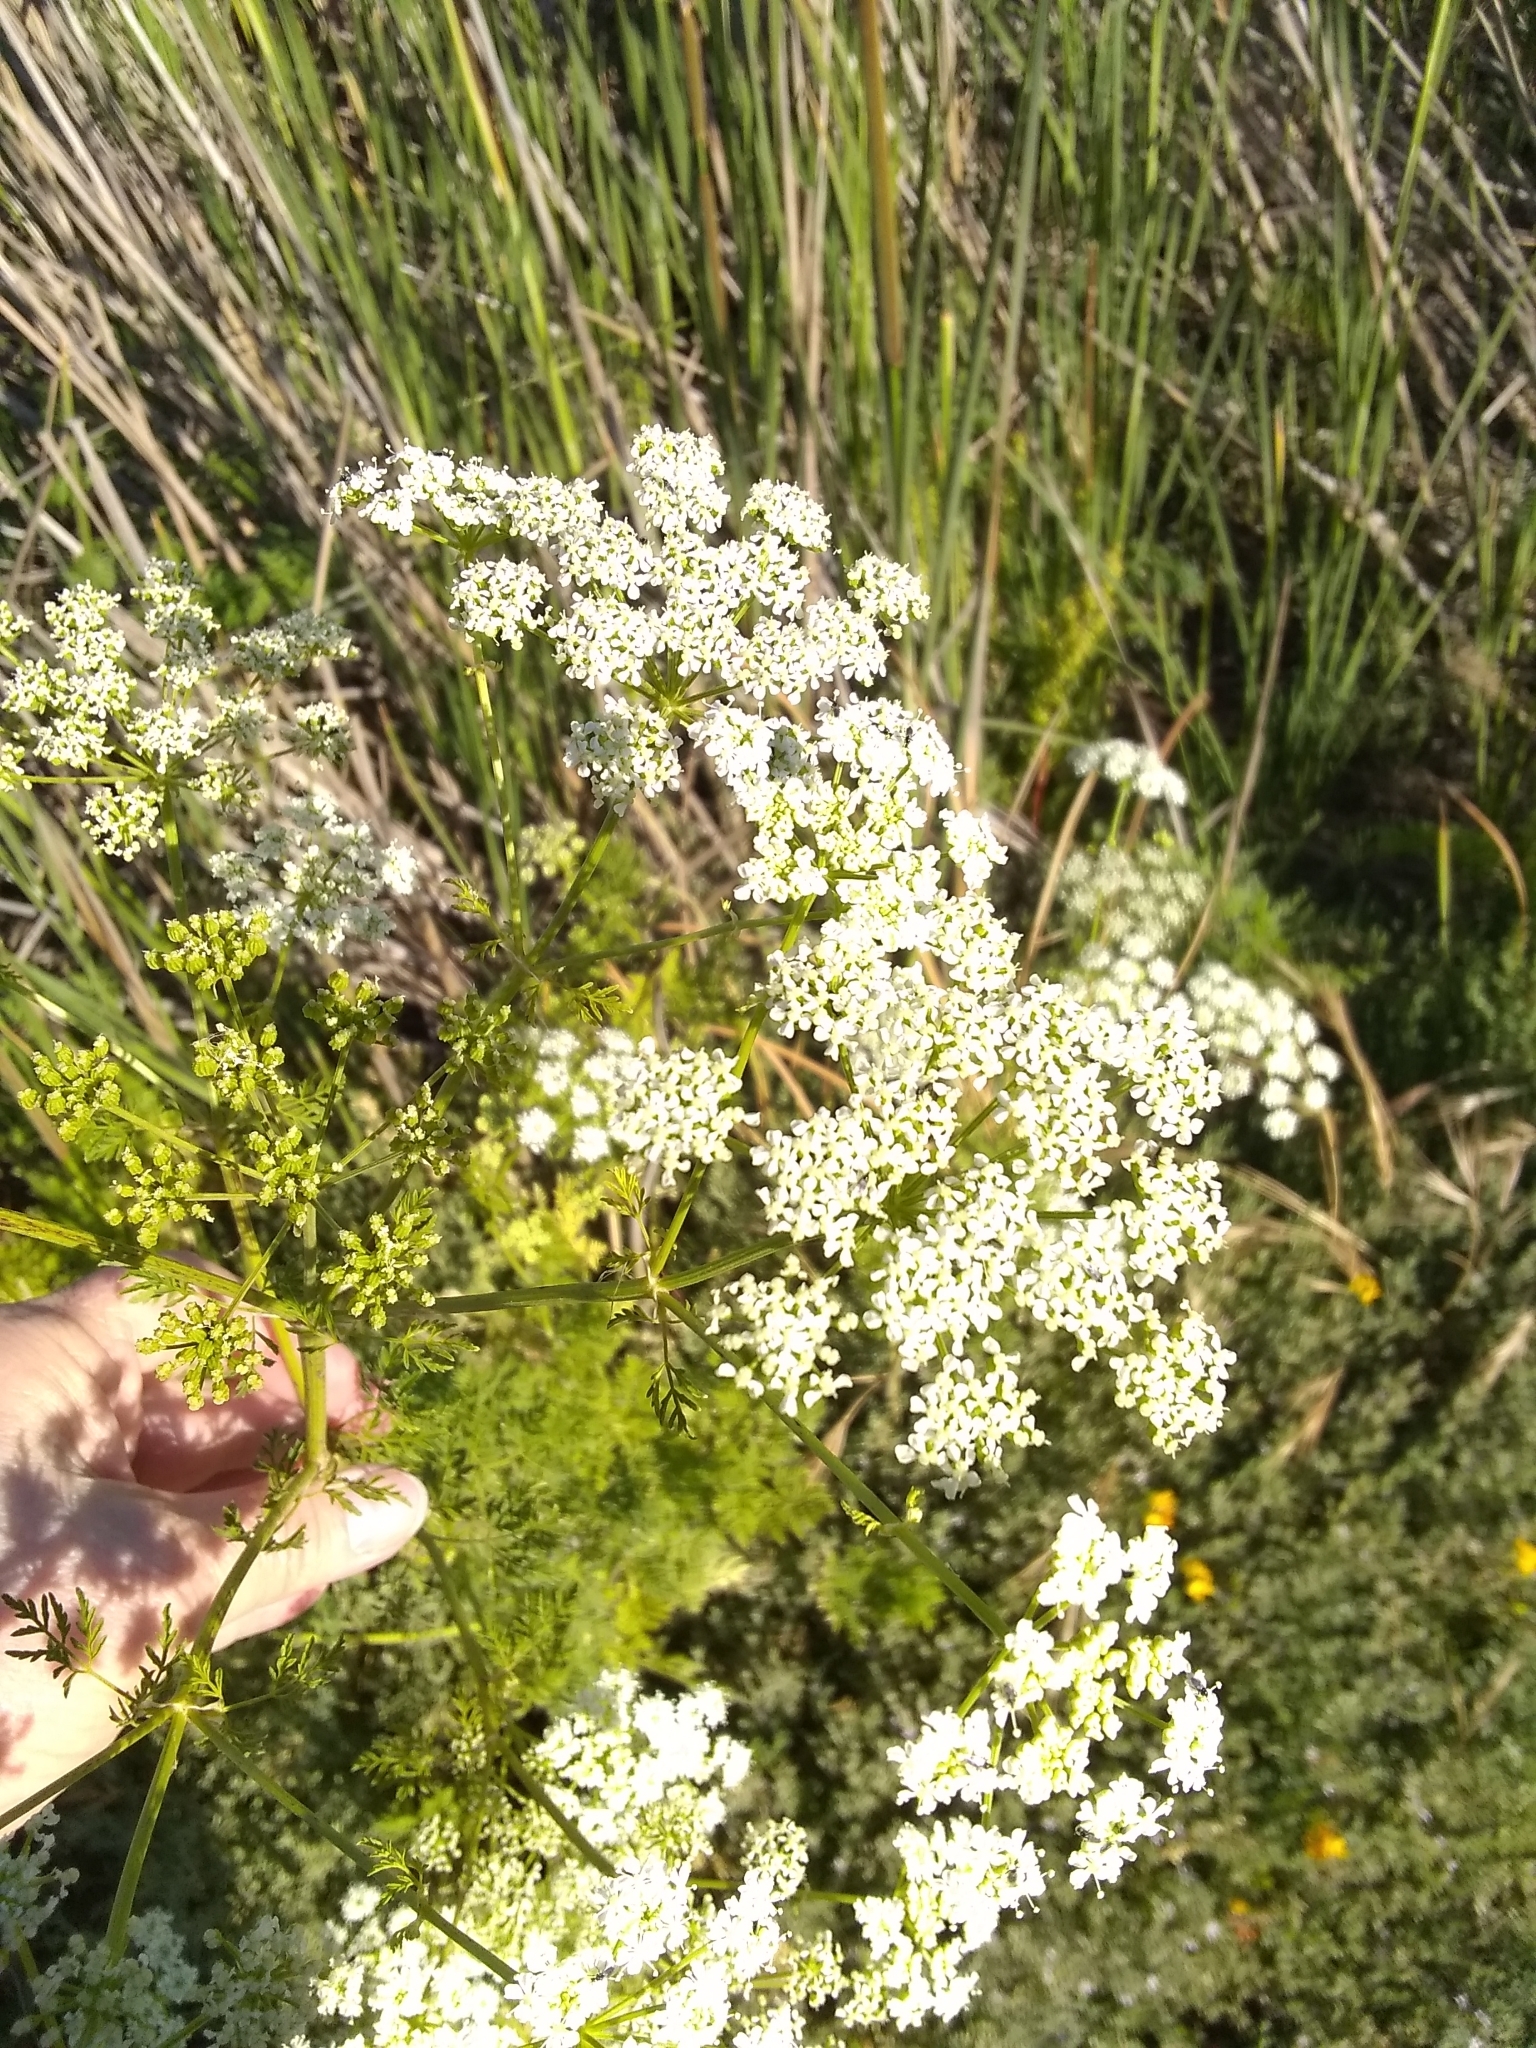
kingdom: Plantae
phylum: Tracheophyta
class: Magnoliopsida
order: Apiales
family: Apiaceae
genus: Conium
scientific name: Conium maculatum
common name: Hemlock
